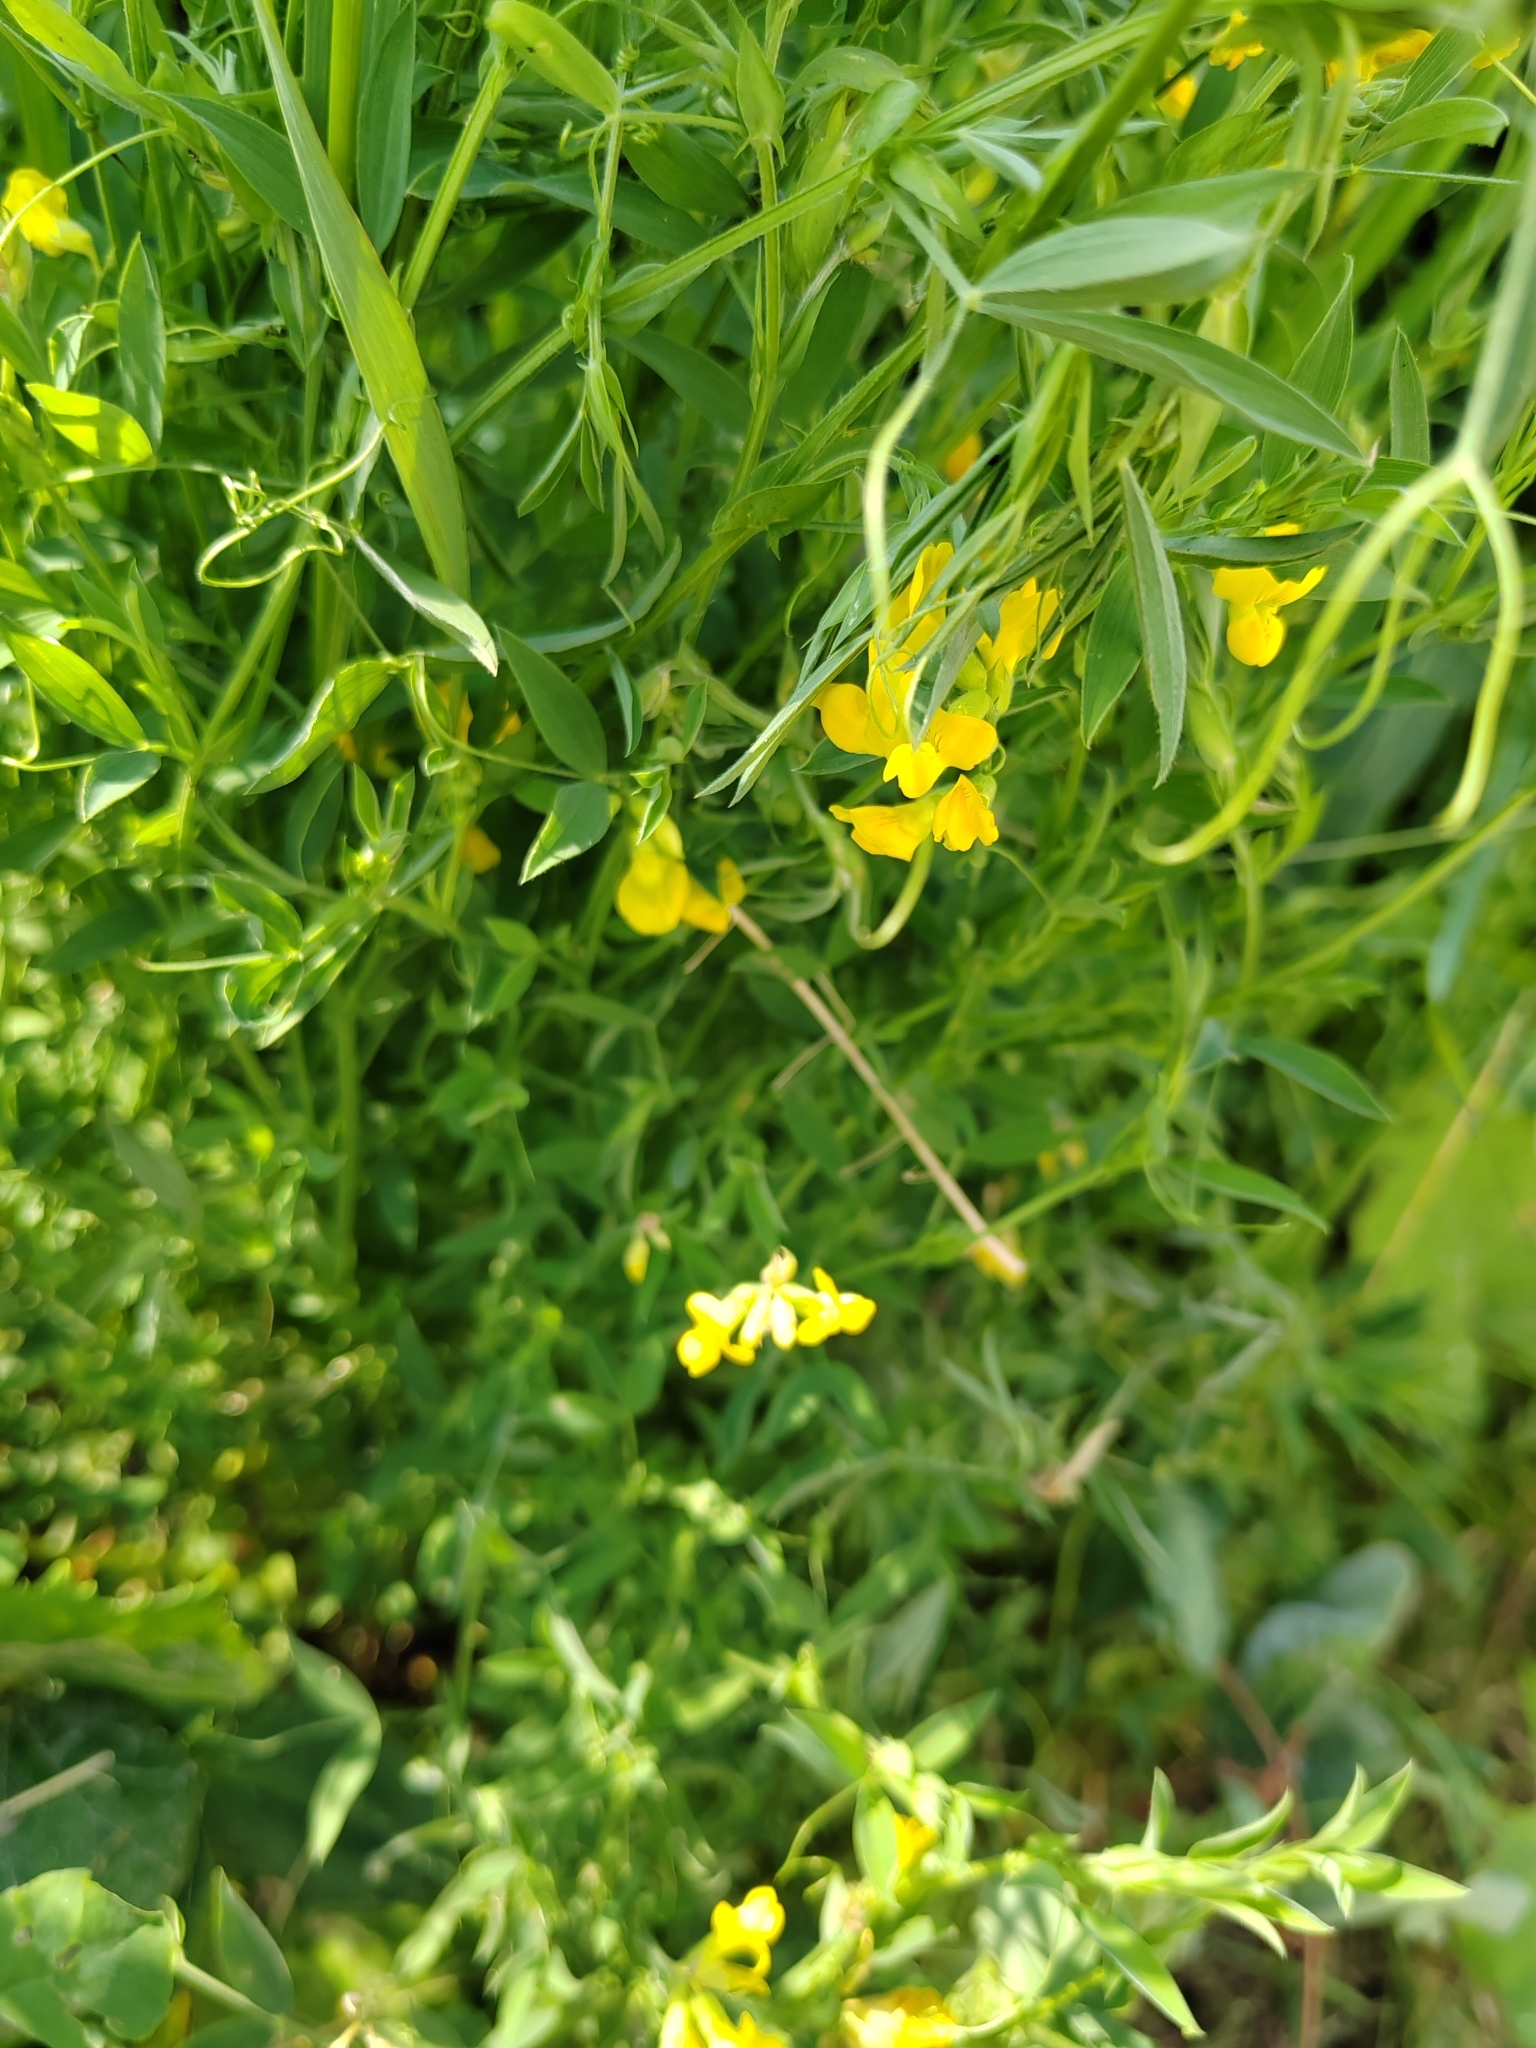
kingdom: Plantae
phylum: Tracheophyta
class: Magnoliopsida
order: Fabales
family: Fabaceae
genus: Lathyrus
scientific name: Lathyrus pratensis
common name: Meadow vetchling
